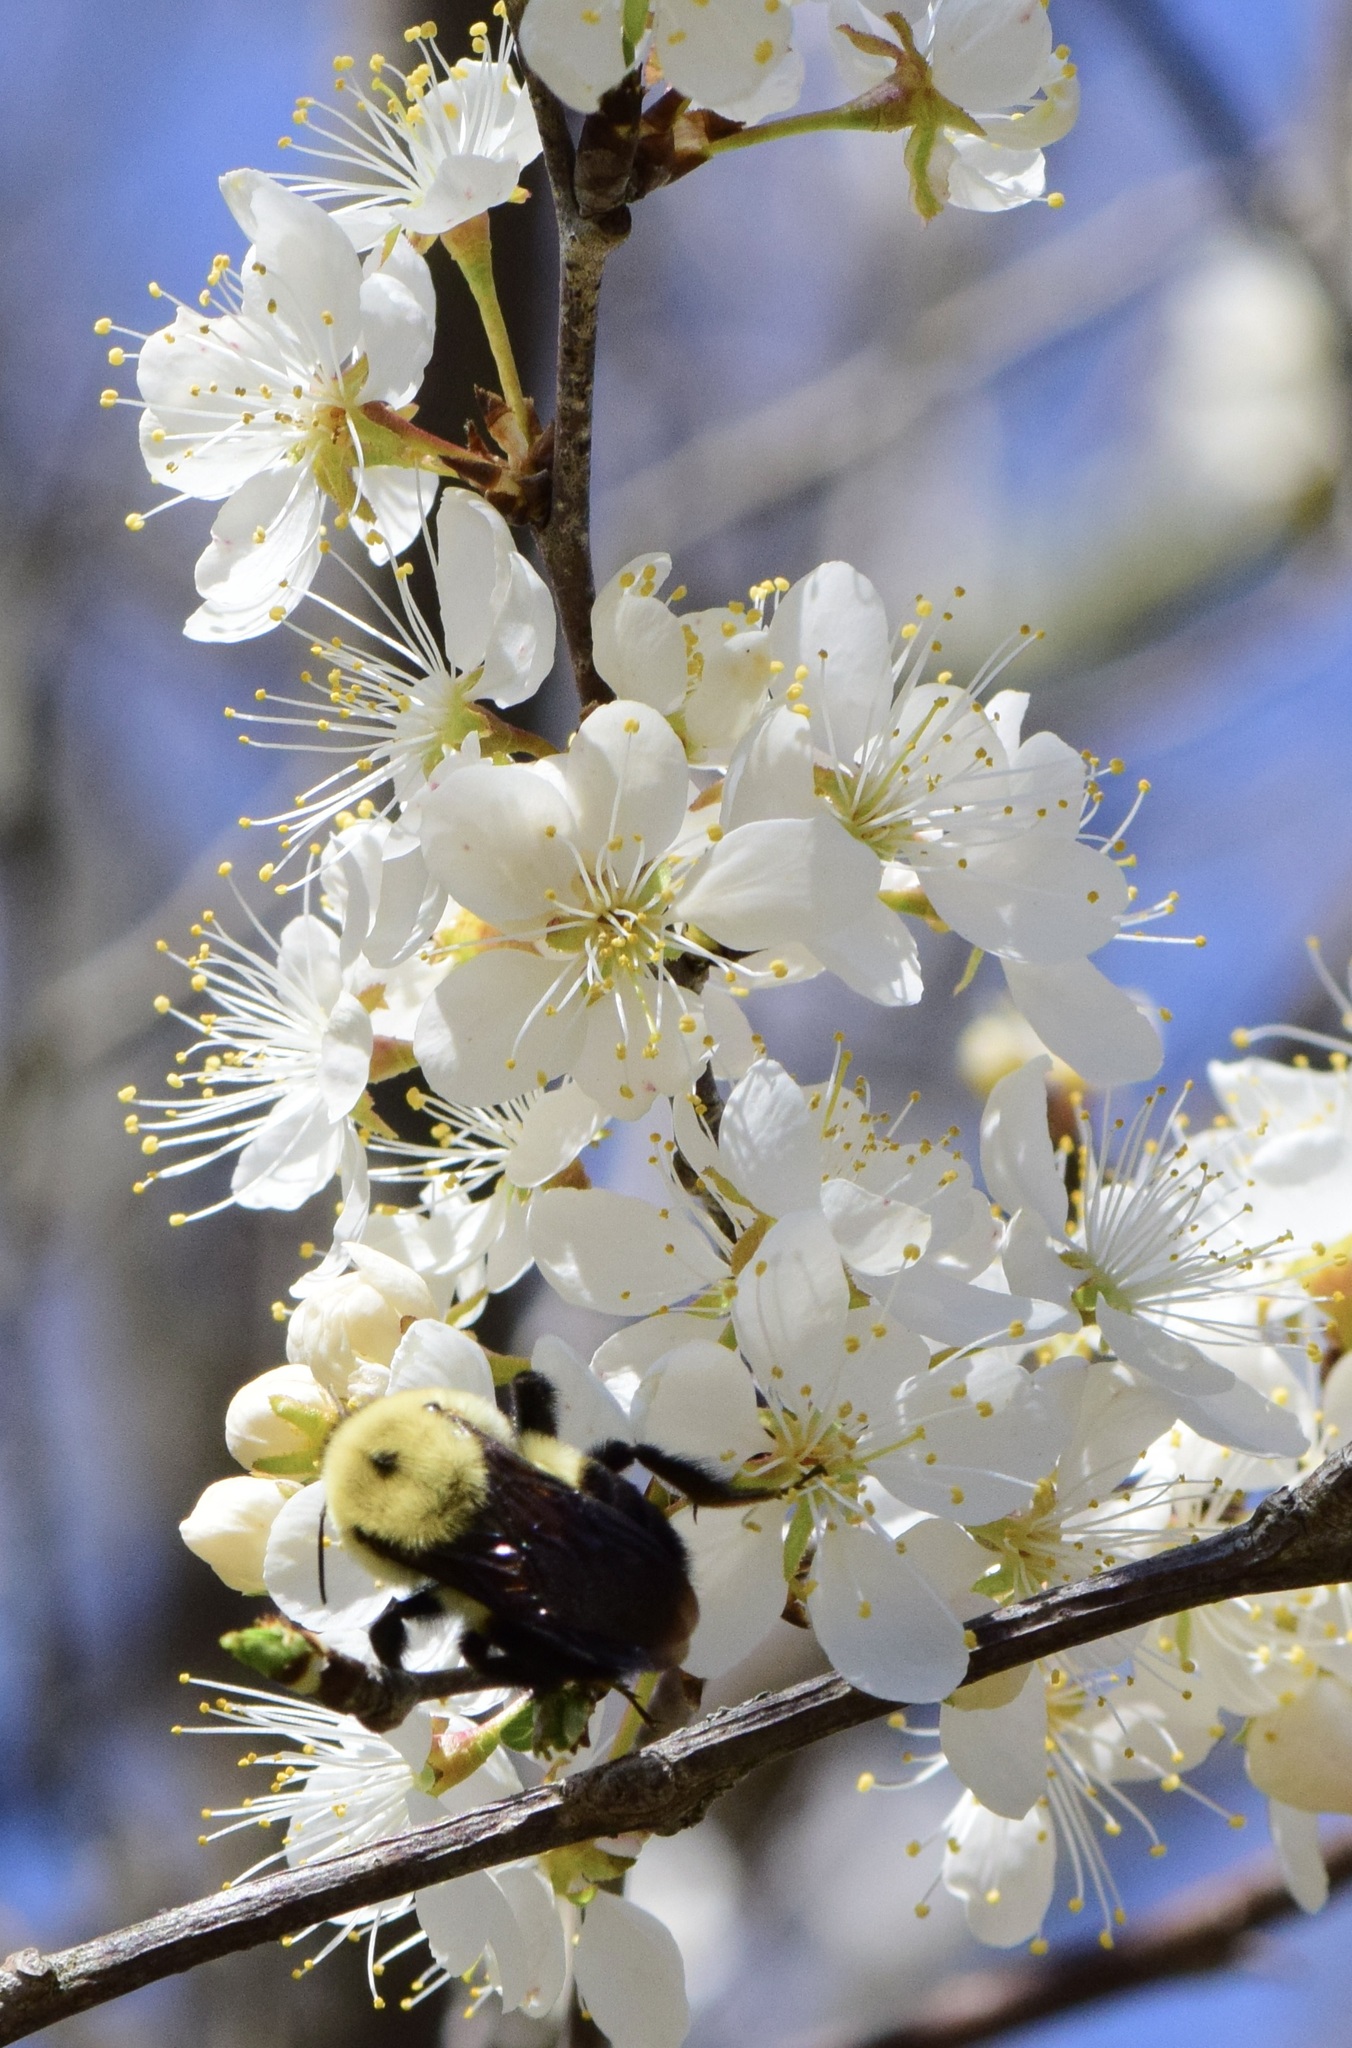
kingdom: Animalia
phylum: Arthropoda
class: Insecta
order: Hymenoptera
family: Apidae
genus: Bombus
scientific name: Bombus griseocollis
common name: Brown-belted bumble bee
